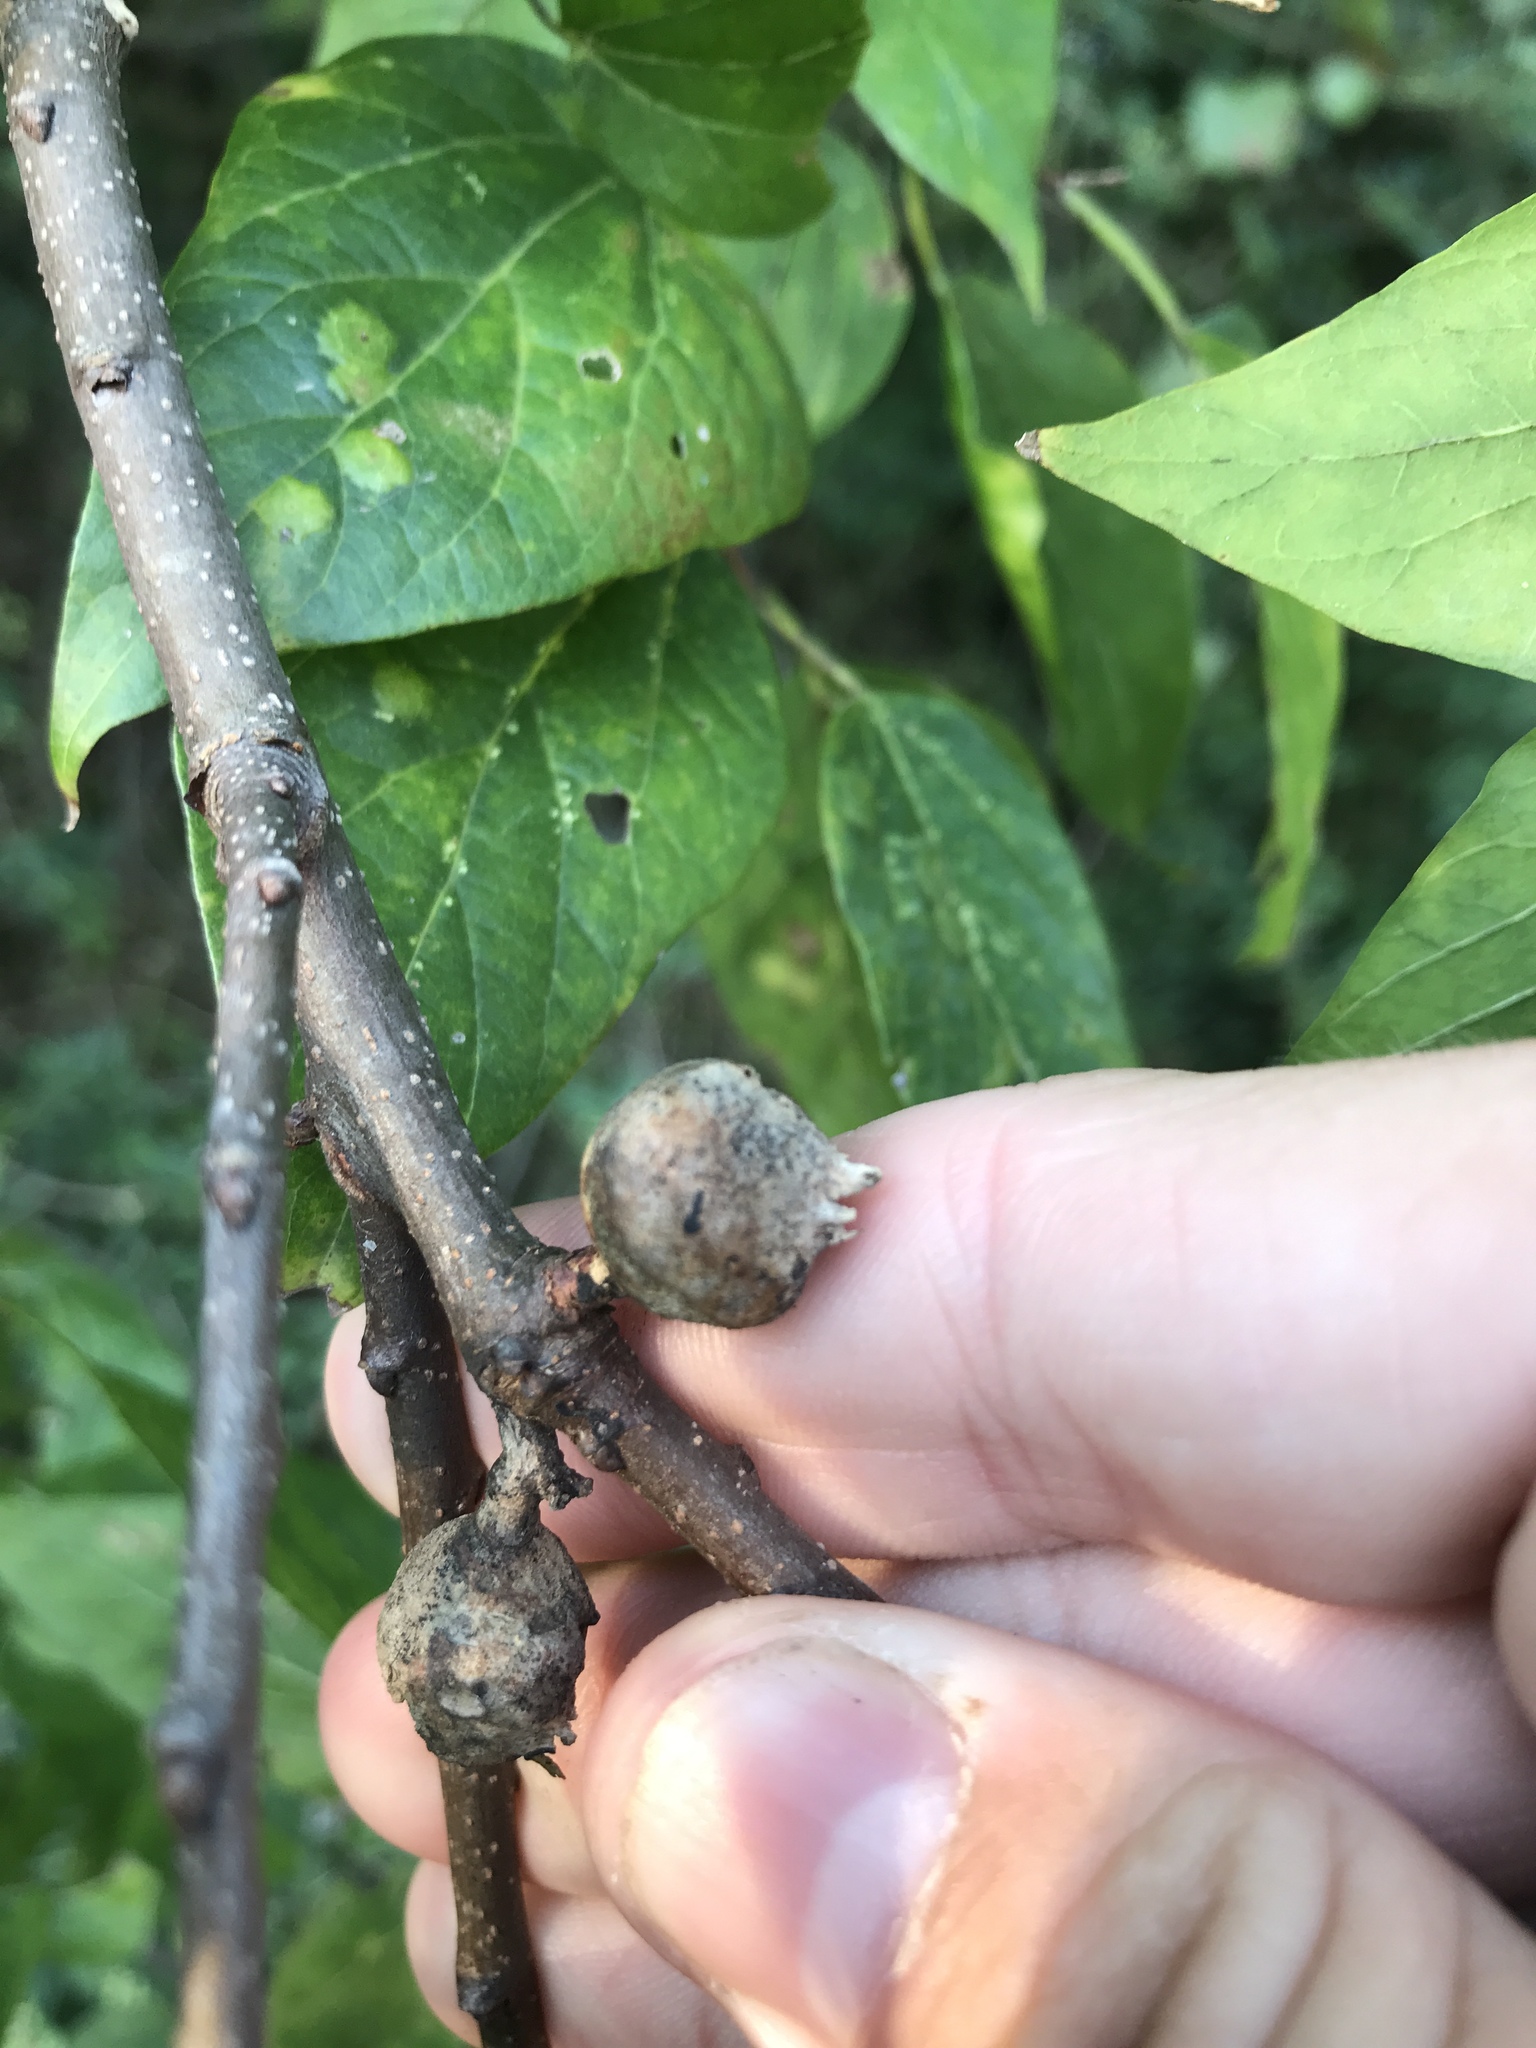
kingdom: Animalia
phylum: Arthropoda
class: Insecta
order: Hemiptera
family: Aphalaridae
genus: Pachypsylla
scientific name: Pachypsylla venusta
